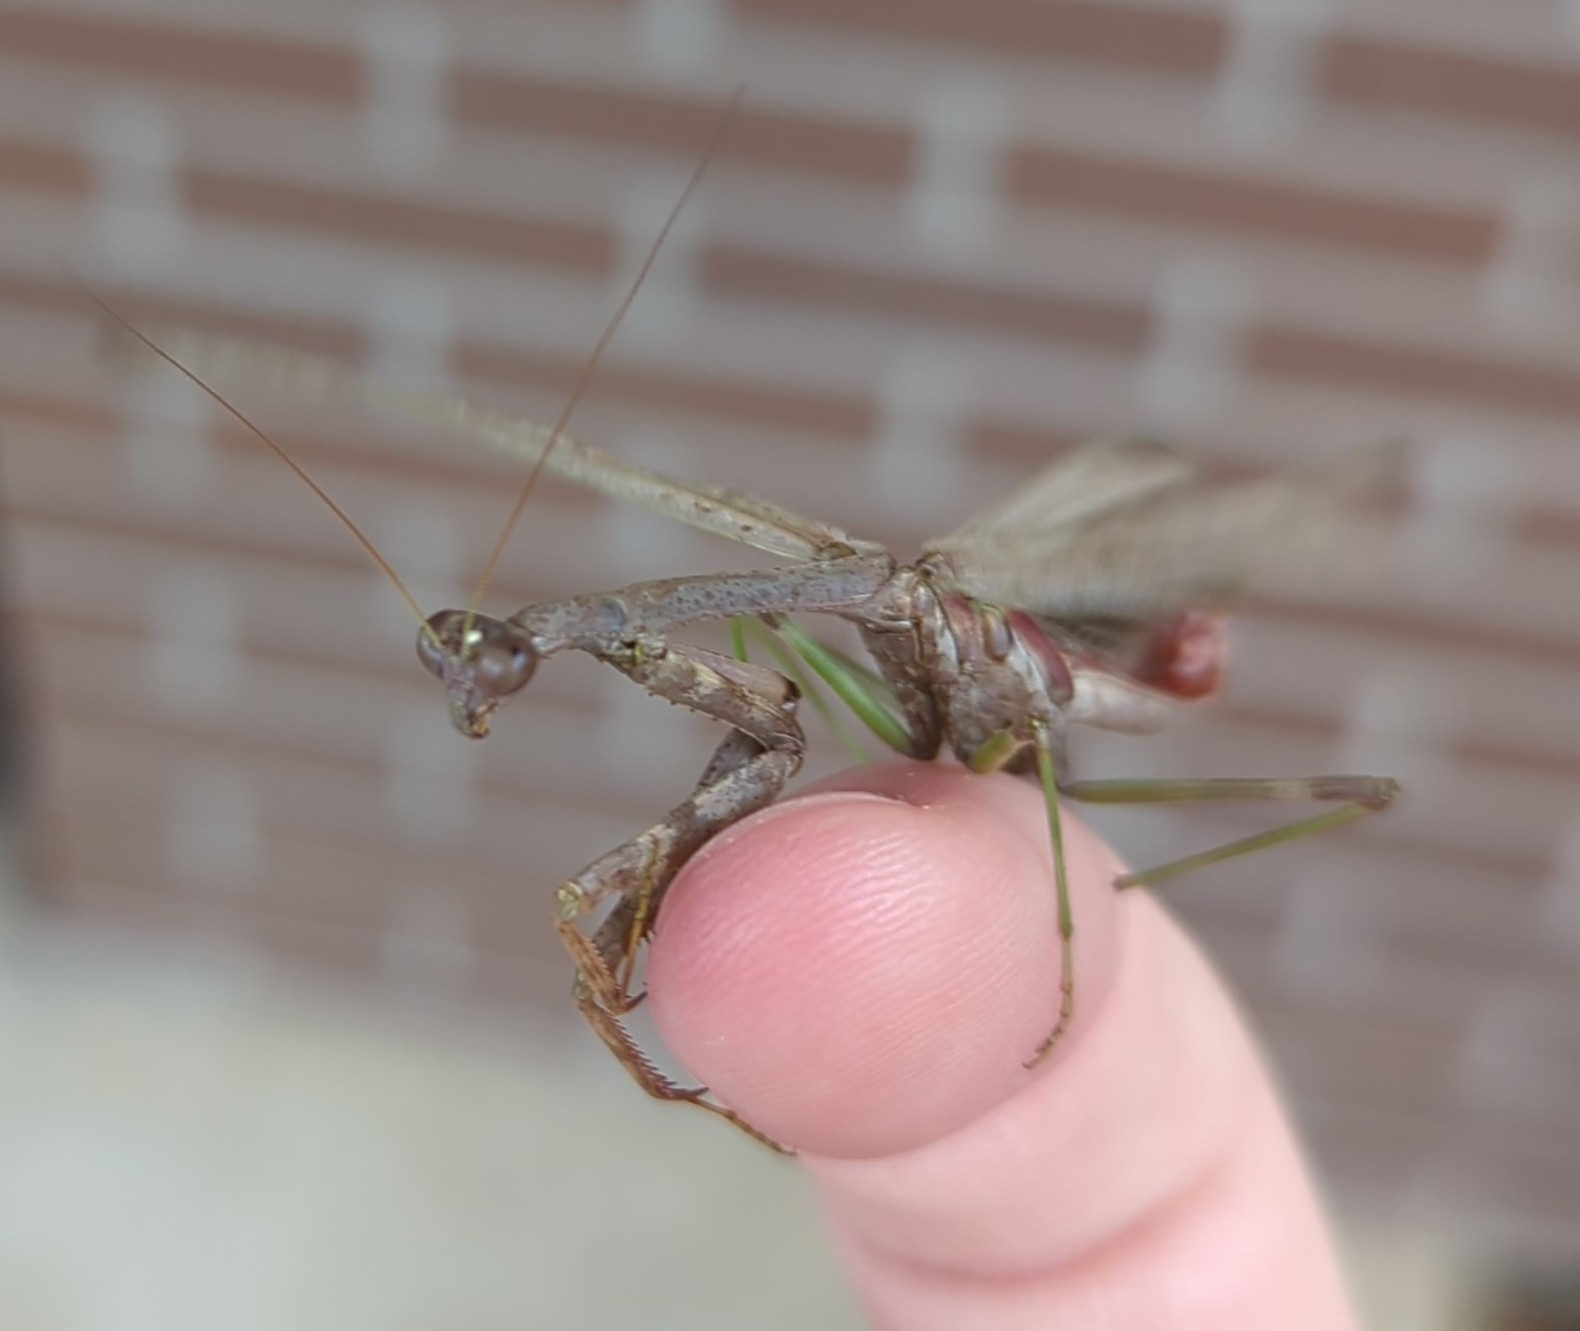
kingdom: Animalia
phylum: Arthropoda
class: Insecta
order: Mantodea
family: Mantidae
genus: Stagmomantis
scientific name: Stagmomantis carolina
